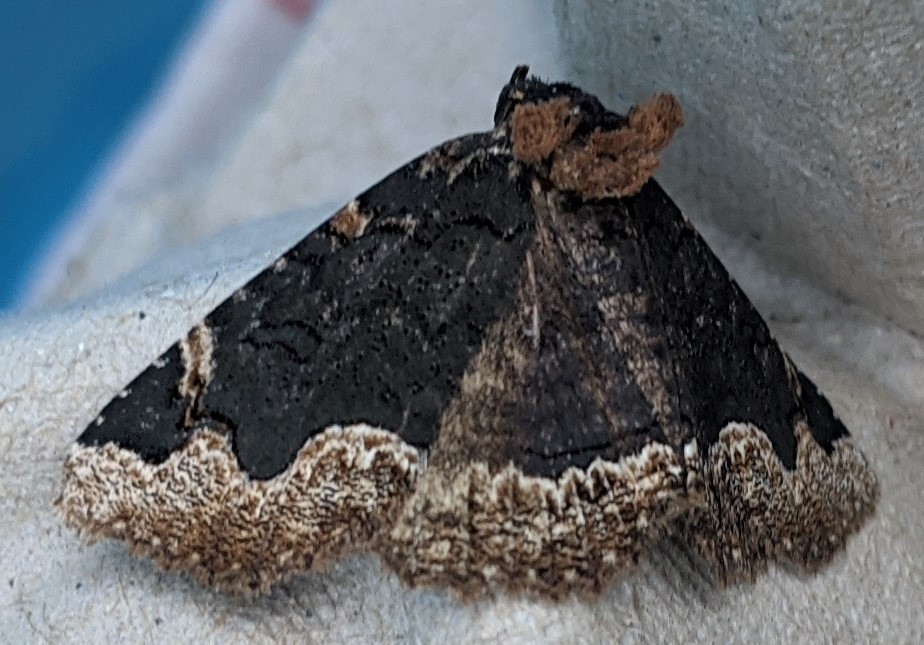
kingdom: Animalia
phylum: Arthropoda
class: Insecta
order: Lepidoptera
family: Erebidae
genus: Zale
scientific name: Zale horrida
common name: Horrid zale moth
